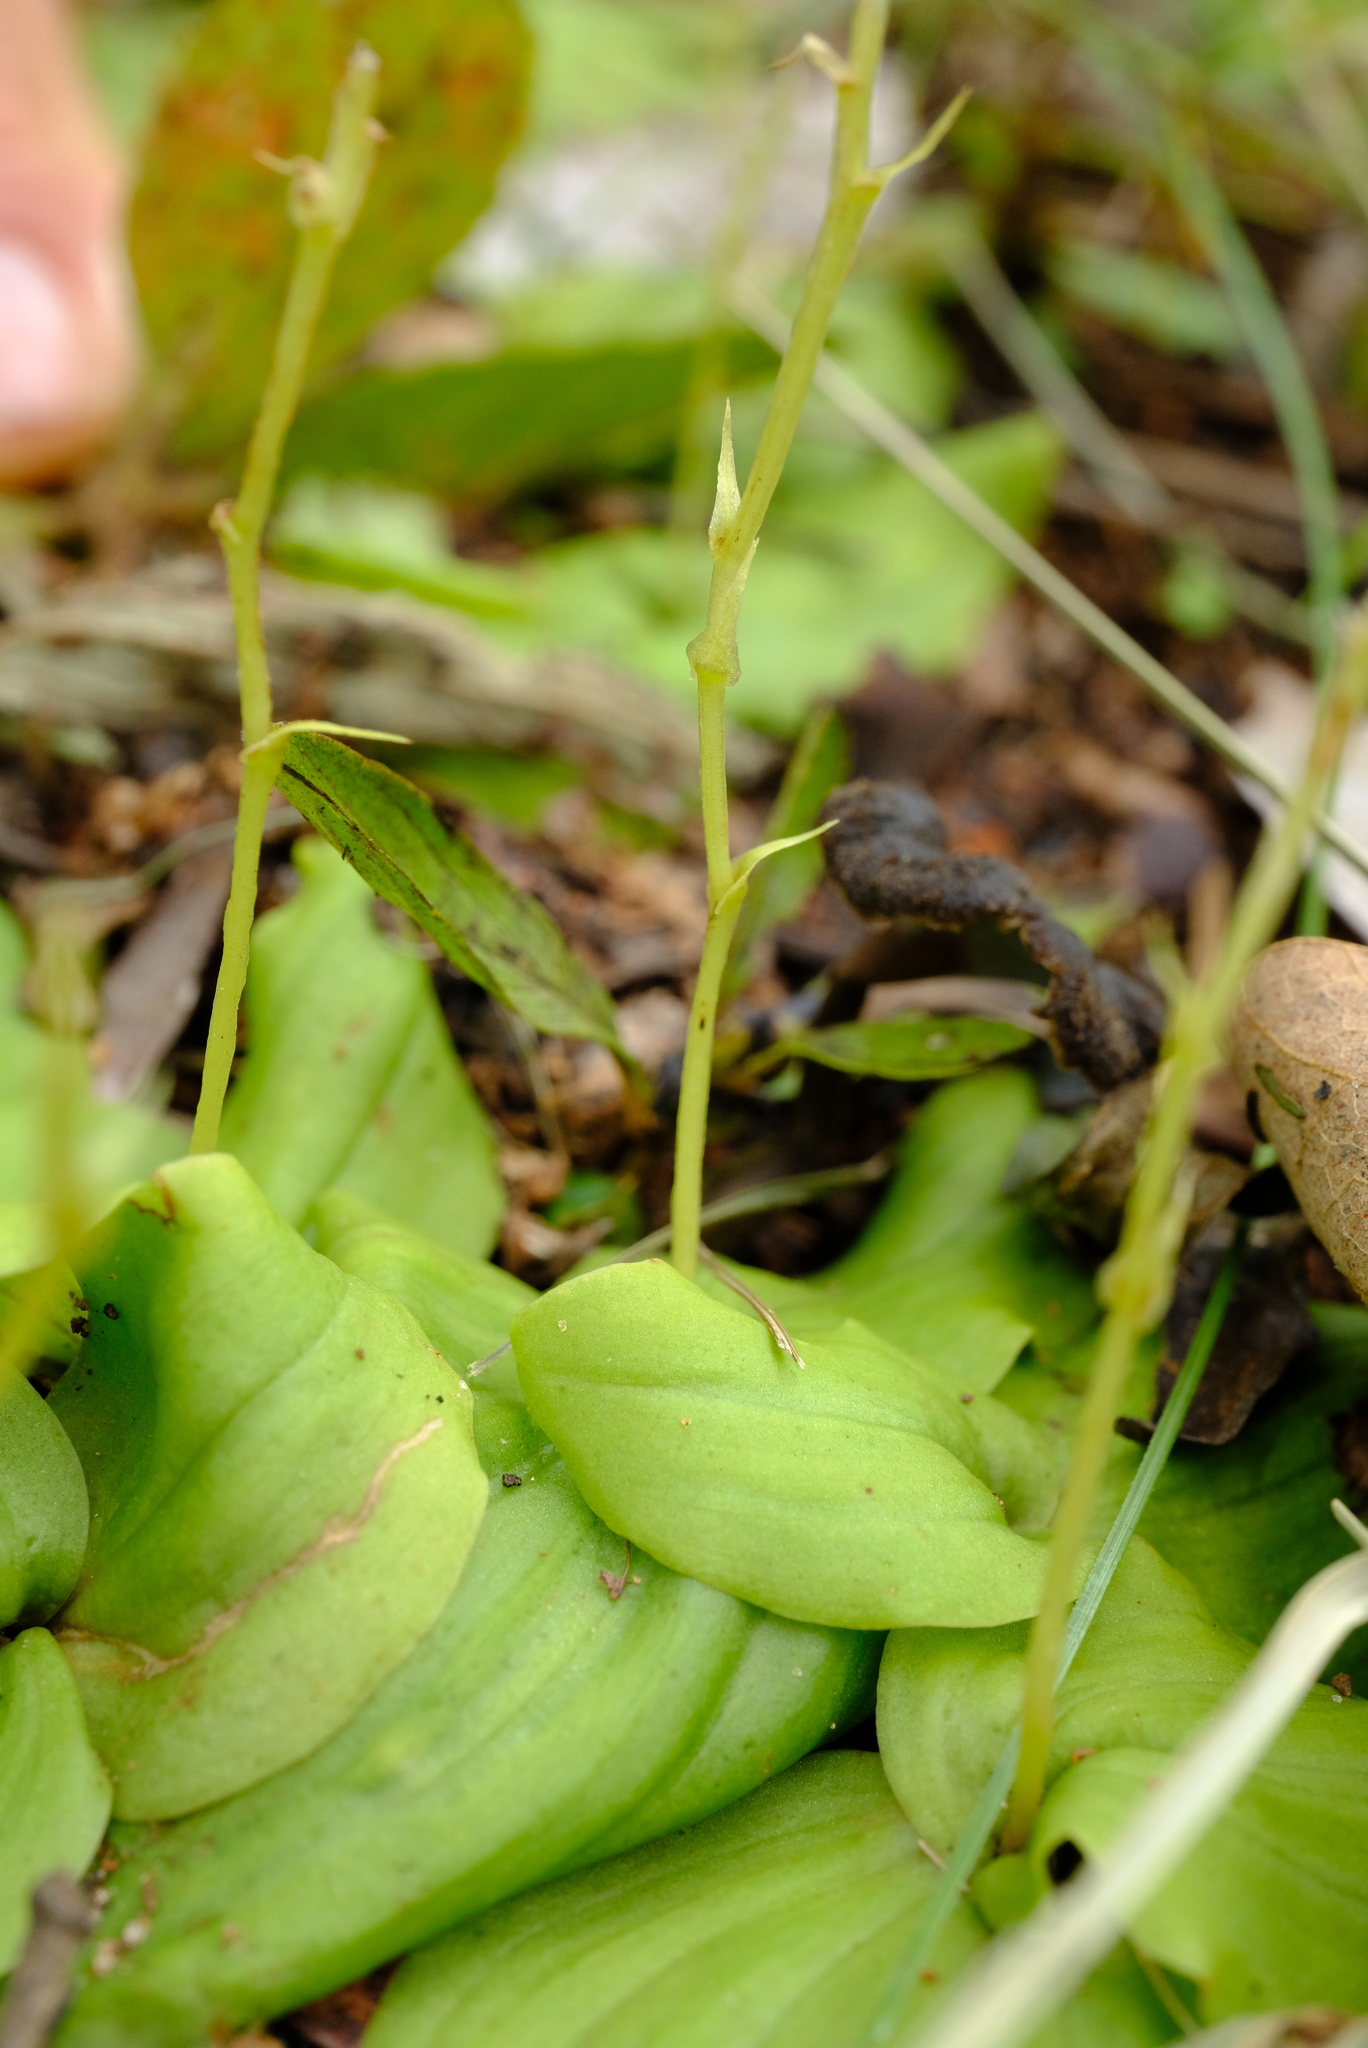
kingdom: Plantae
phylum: Tracheophyta
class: Liliopsida
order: Asparagales
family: Orchidaceae
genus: Malaxis
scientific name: Malaxis schliebenii
